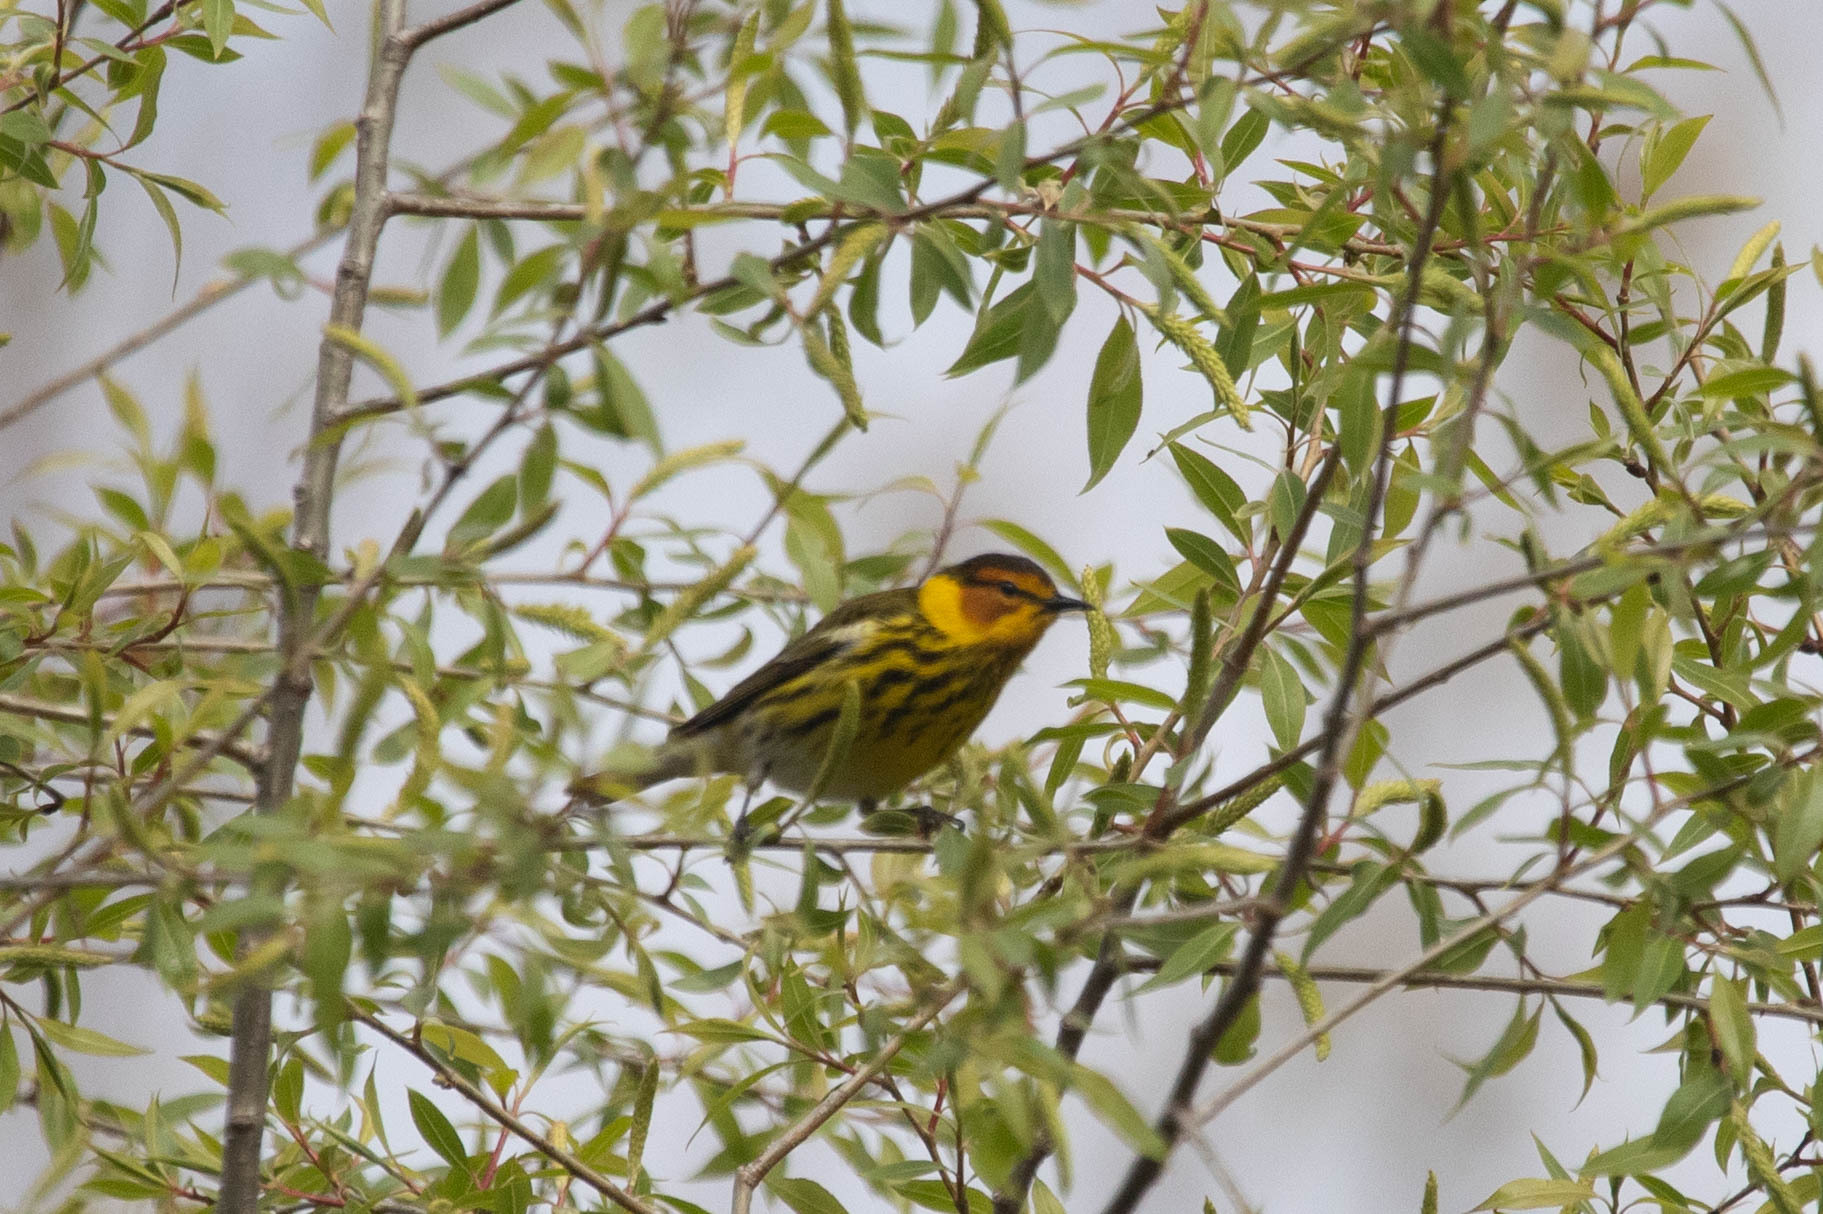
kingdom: Animalia
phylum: Chordata
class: Aves
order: Passeriformes
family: Parulidae
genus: Setophaga
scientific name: Setophaga tigrina
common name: Cape may warbler
